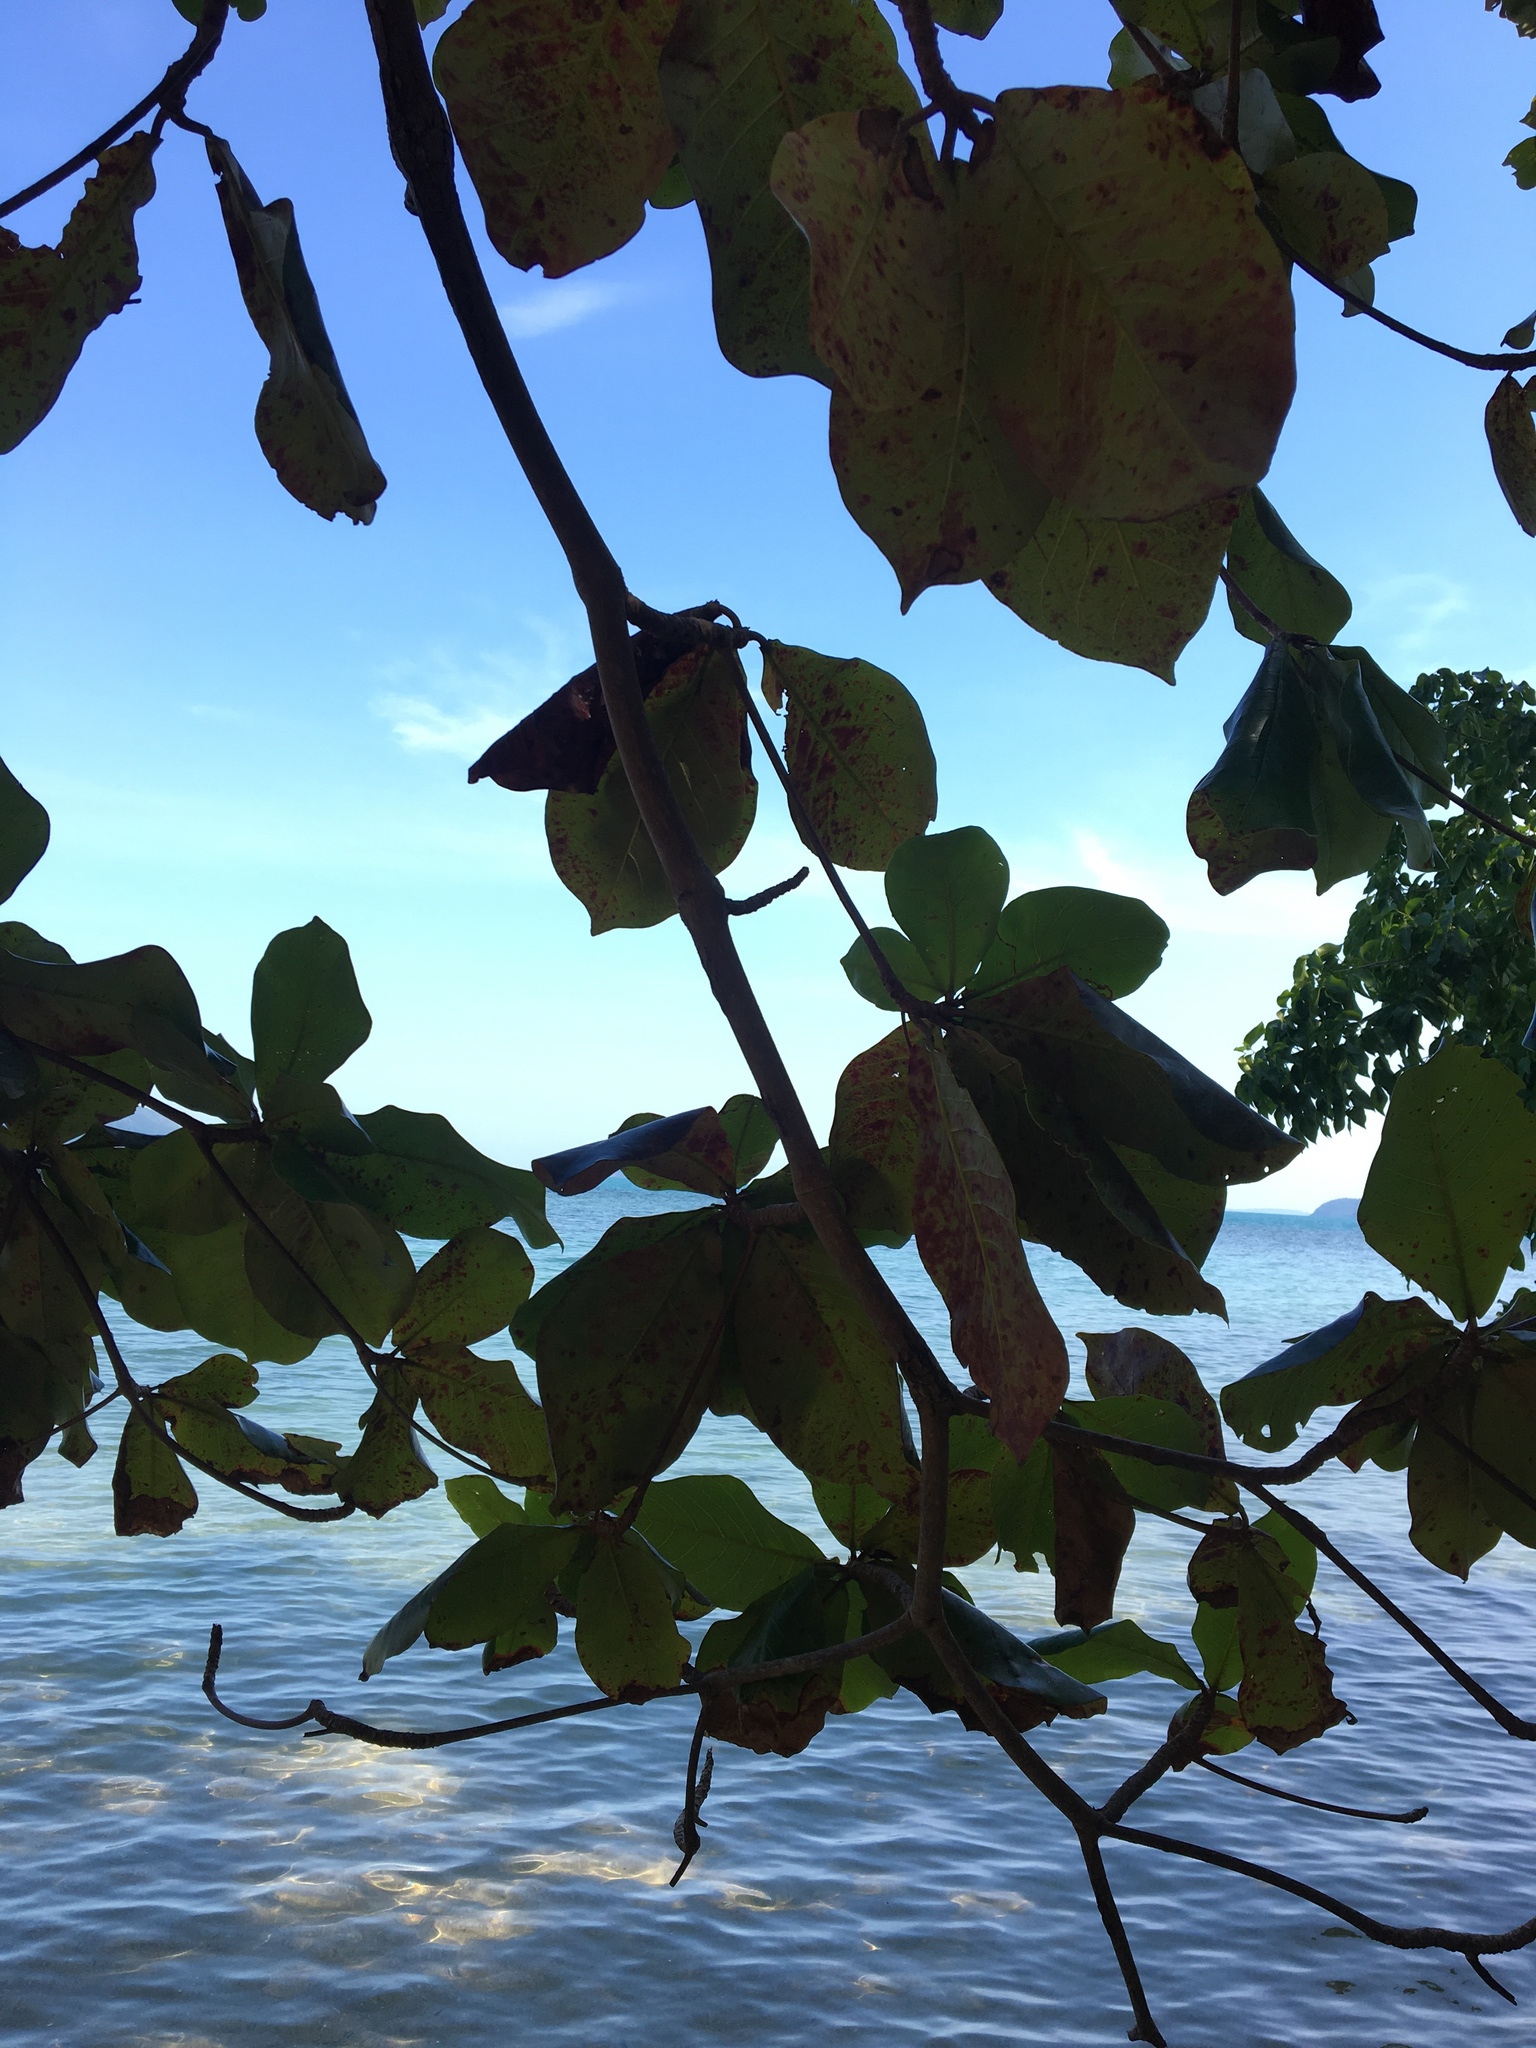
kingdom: Plantae
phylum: Tracheophyta
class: Magnoliopsida
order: Myrtales
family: Combretaceae
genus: Terminalia
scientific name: Terminalia catappa
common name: Tropical almond
